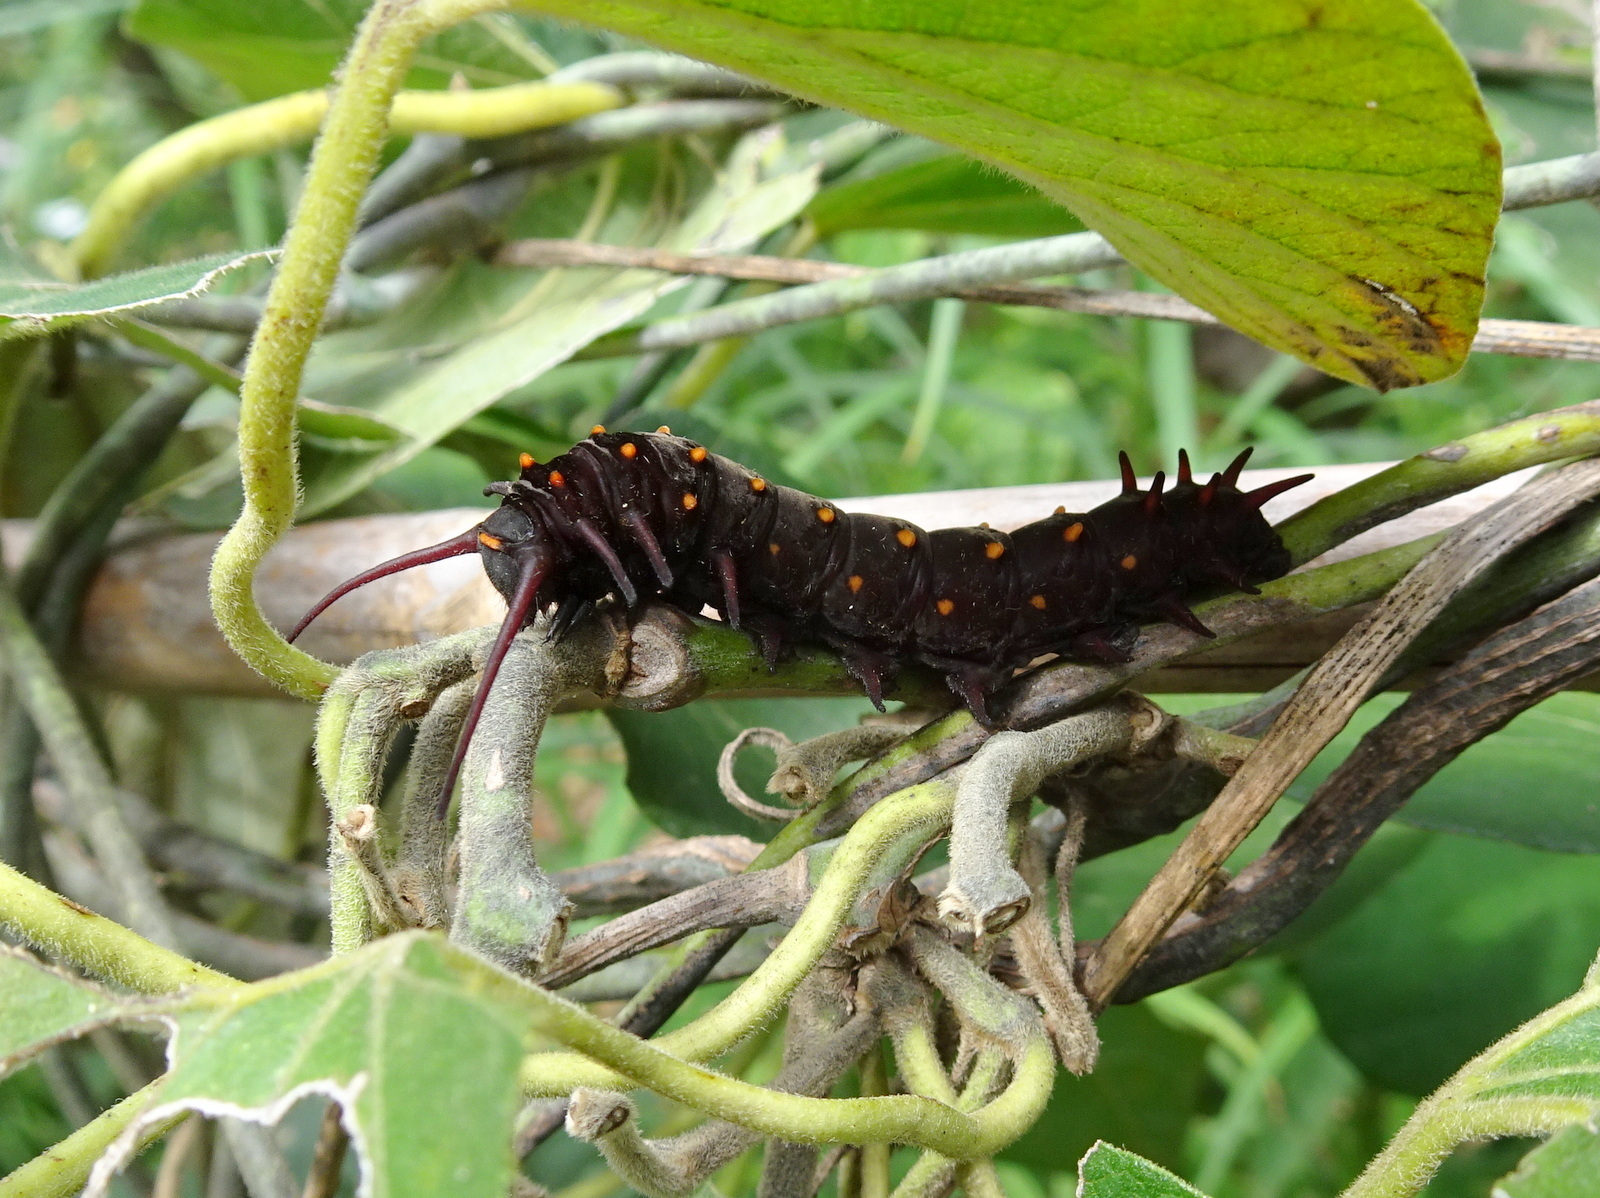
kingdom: Animalia
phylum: Arthropoda
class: Insecta
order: Lepidoptera
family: Papilionidae
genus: Battus
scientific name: Battus philenor
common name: Pipevine swallowtail
